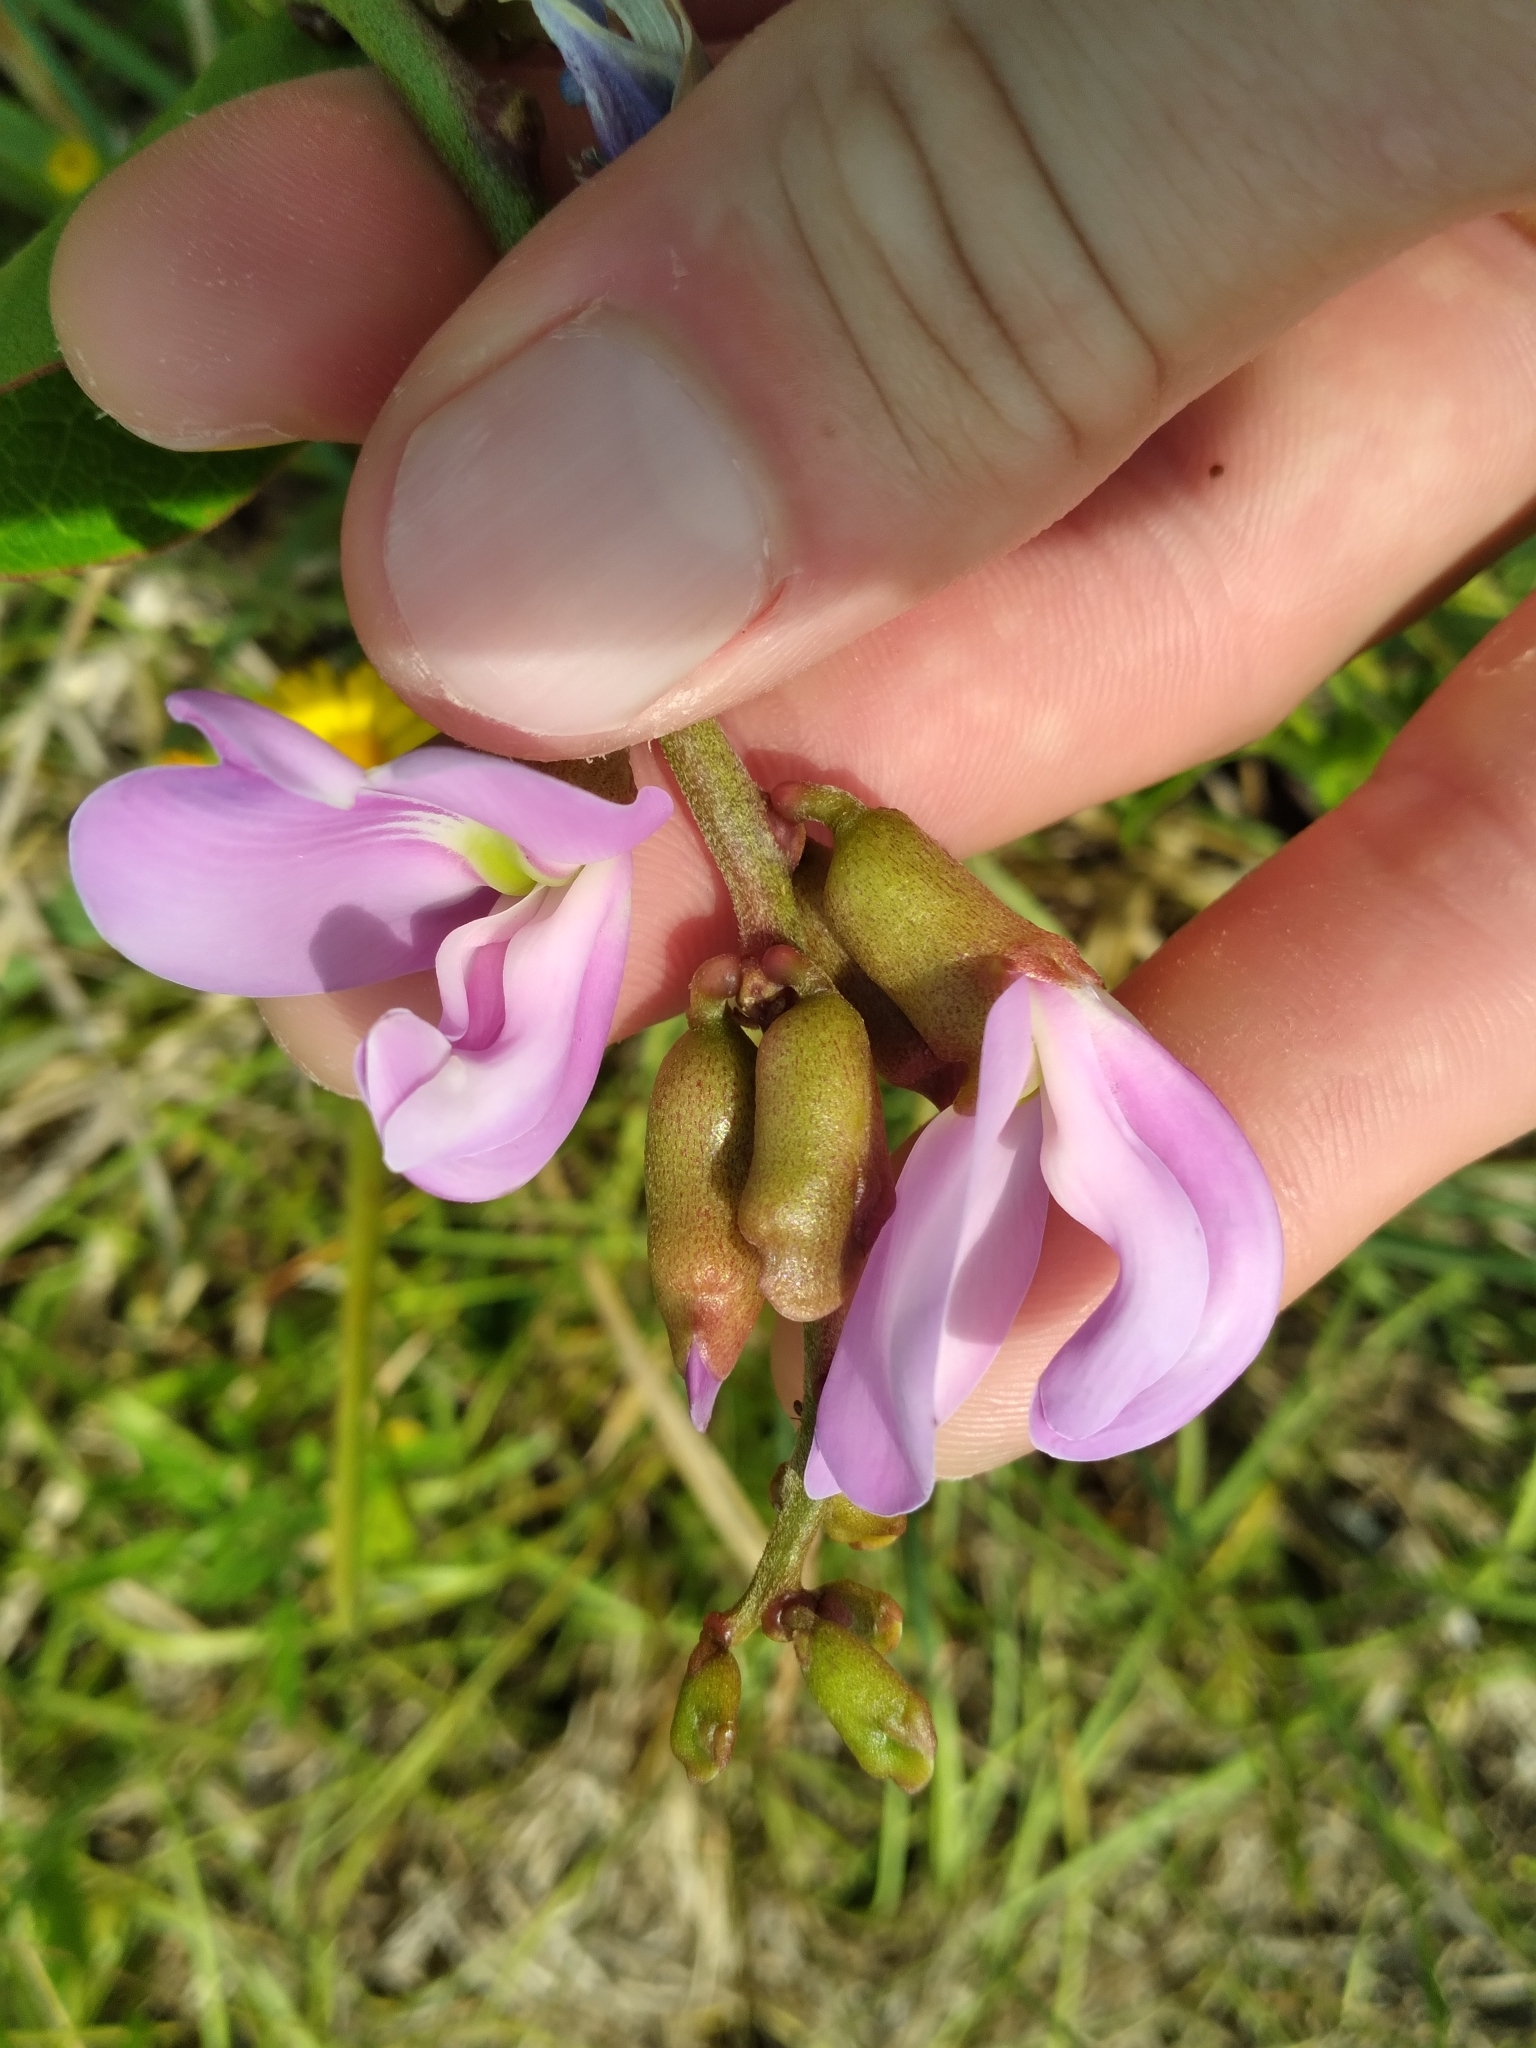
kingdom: Plantae
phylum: Tracheophyta
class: Magnoliopsida
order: Fabales
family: Fabaceae
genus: Canavalia
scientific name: Canavalia rosea
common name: Beach-bean
